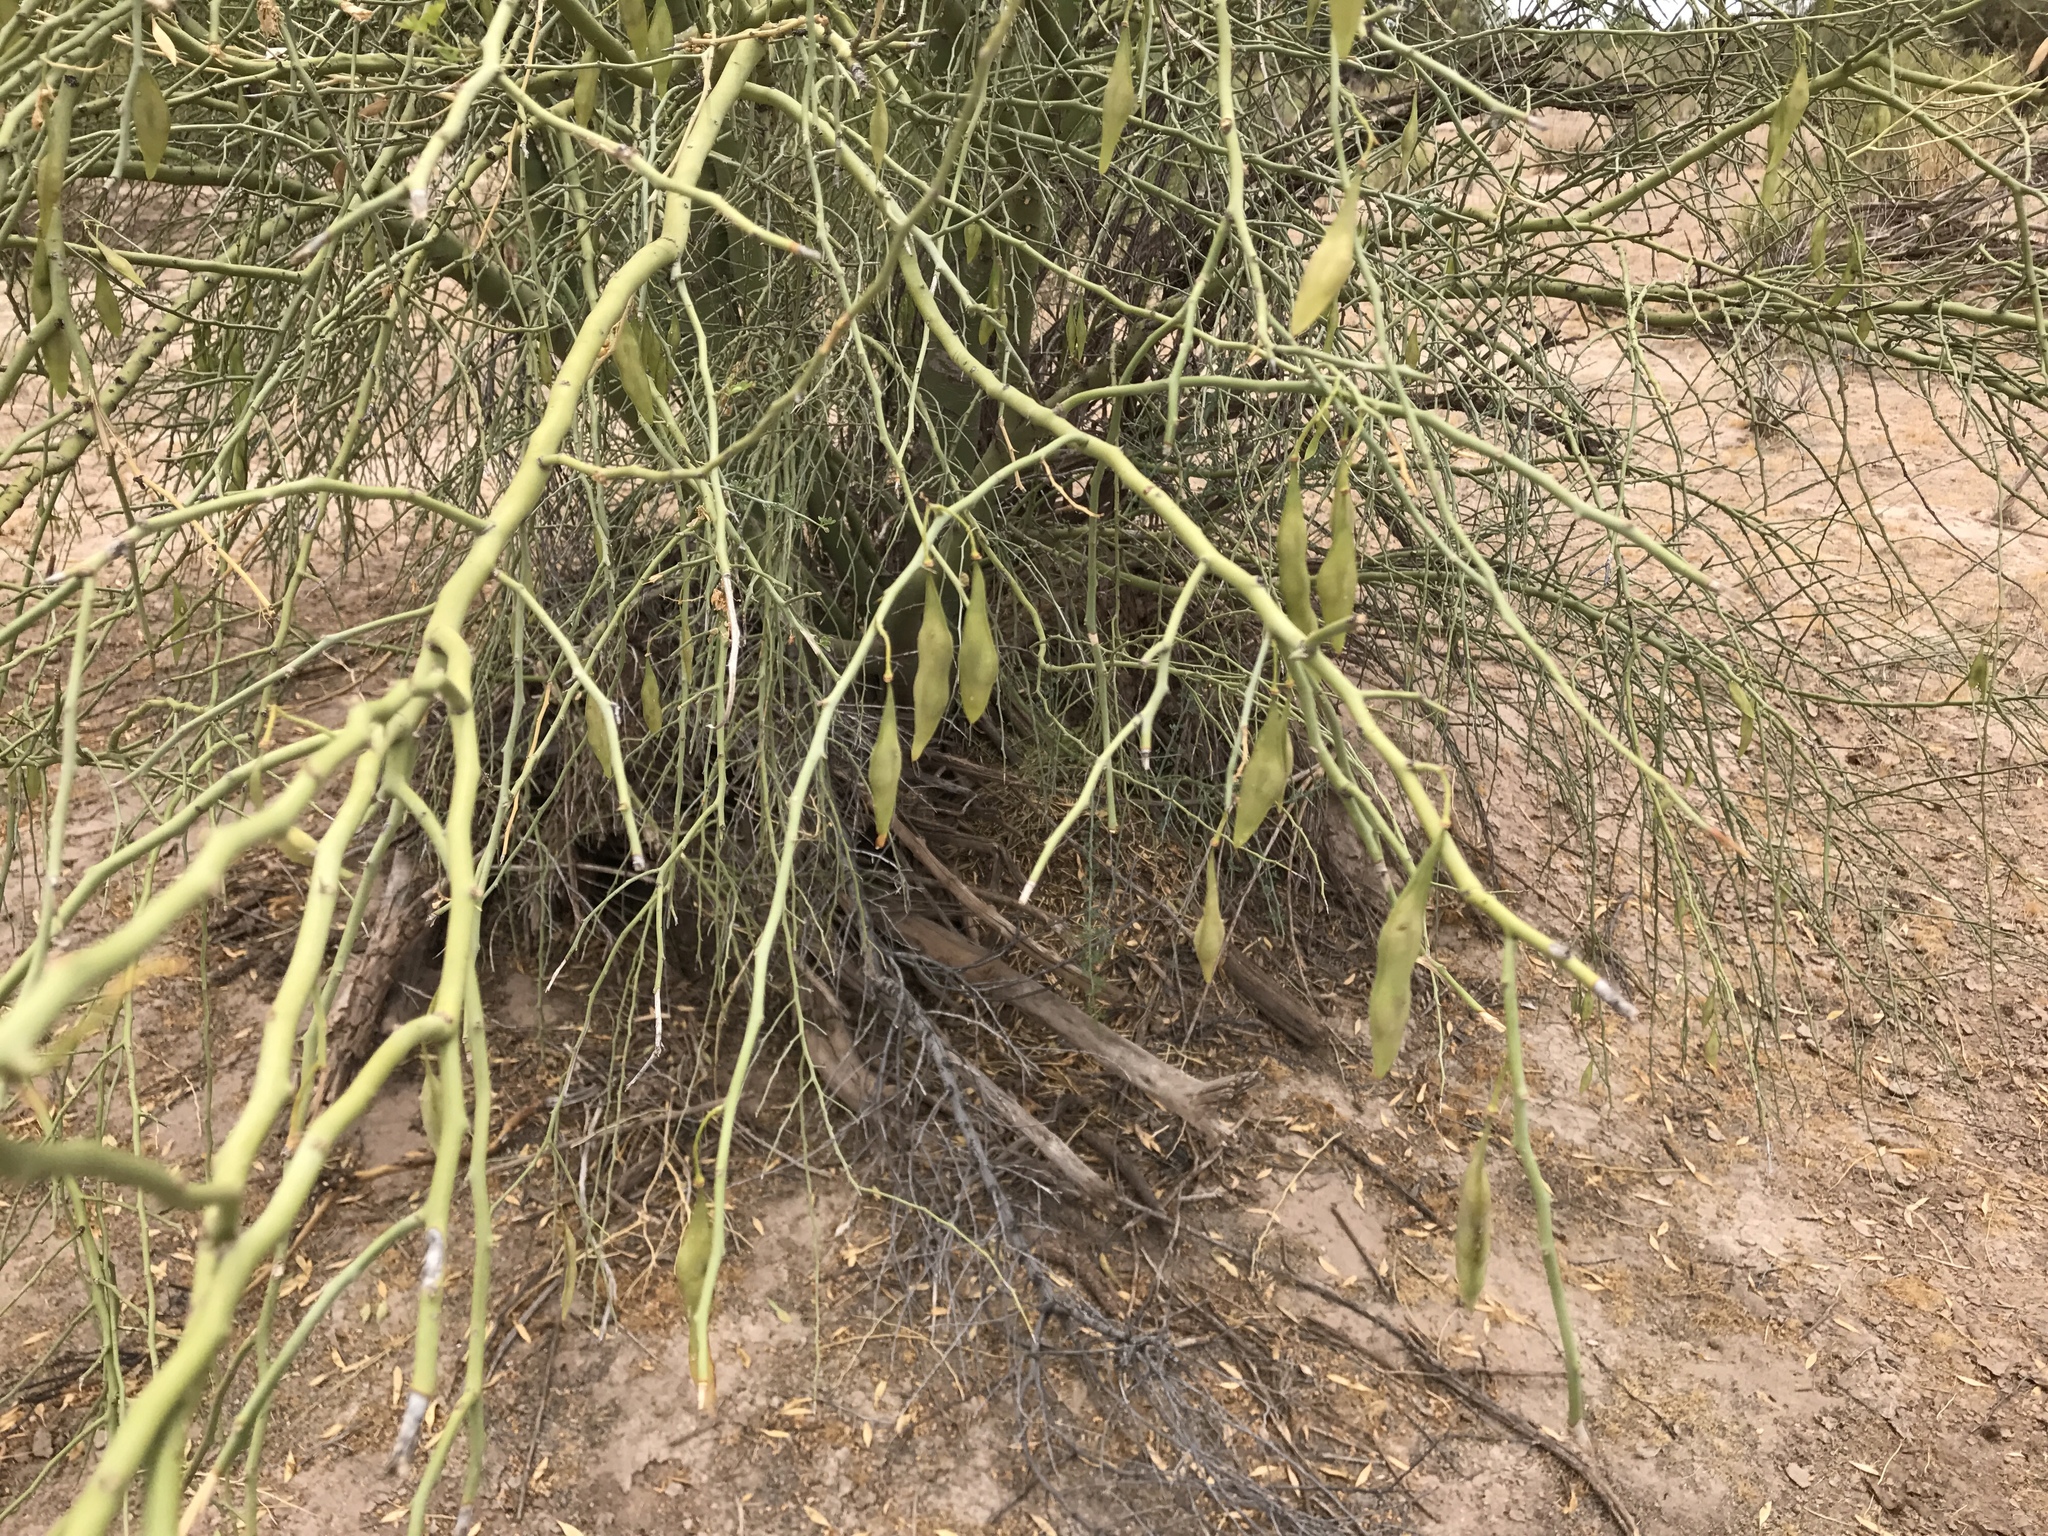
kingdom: Plantae
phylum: Tracheophyta
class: Magnoliopsida
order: Fabales
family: Fabaceae
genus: Parkinsonia
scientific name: Parkinsonia florida
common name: Blue paloverde
